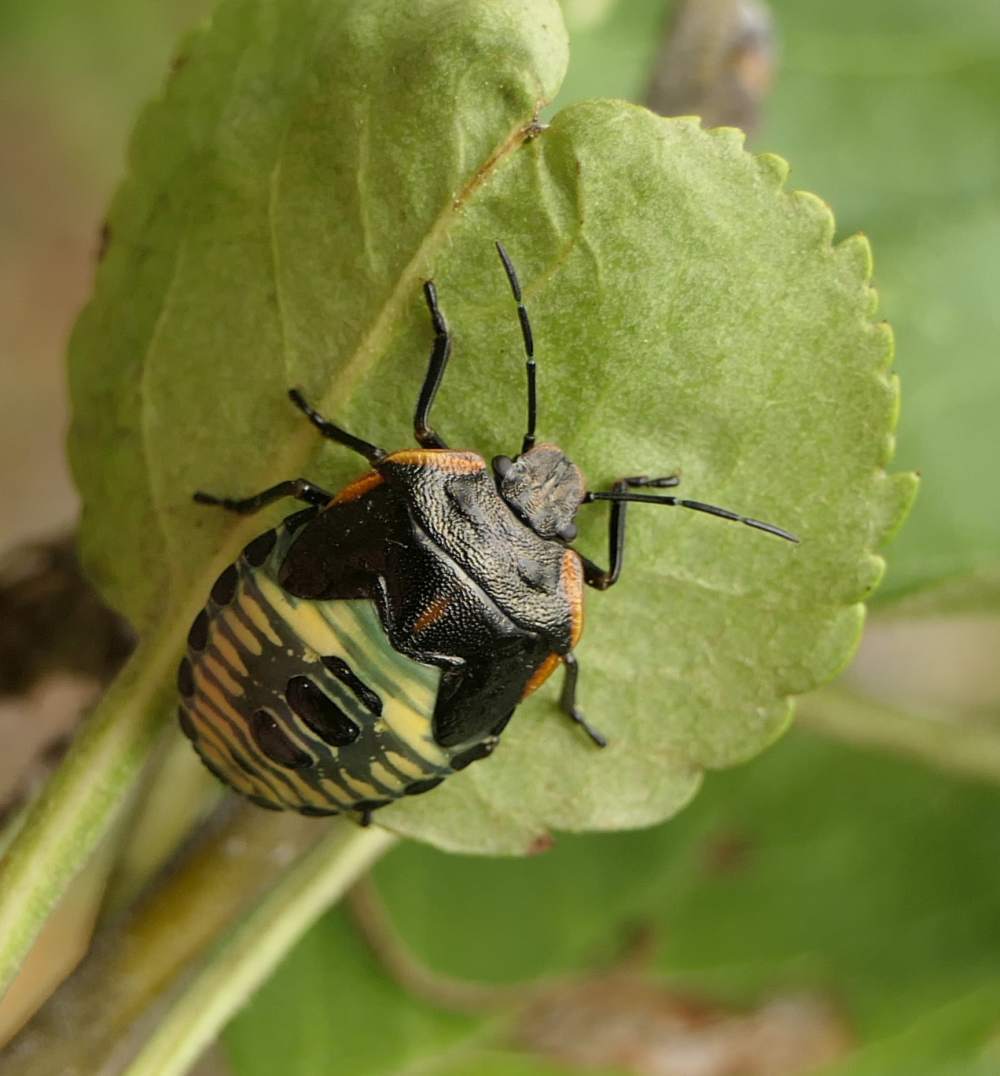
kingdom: Animalia
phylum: Arthropoda
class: Insecta
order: Hemiptera
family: Pentatomidae
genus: Chinavia
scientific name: Chinavia hilaris
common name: Green stink bug
